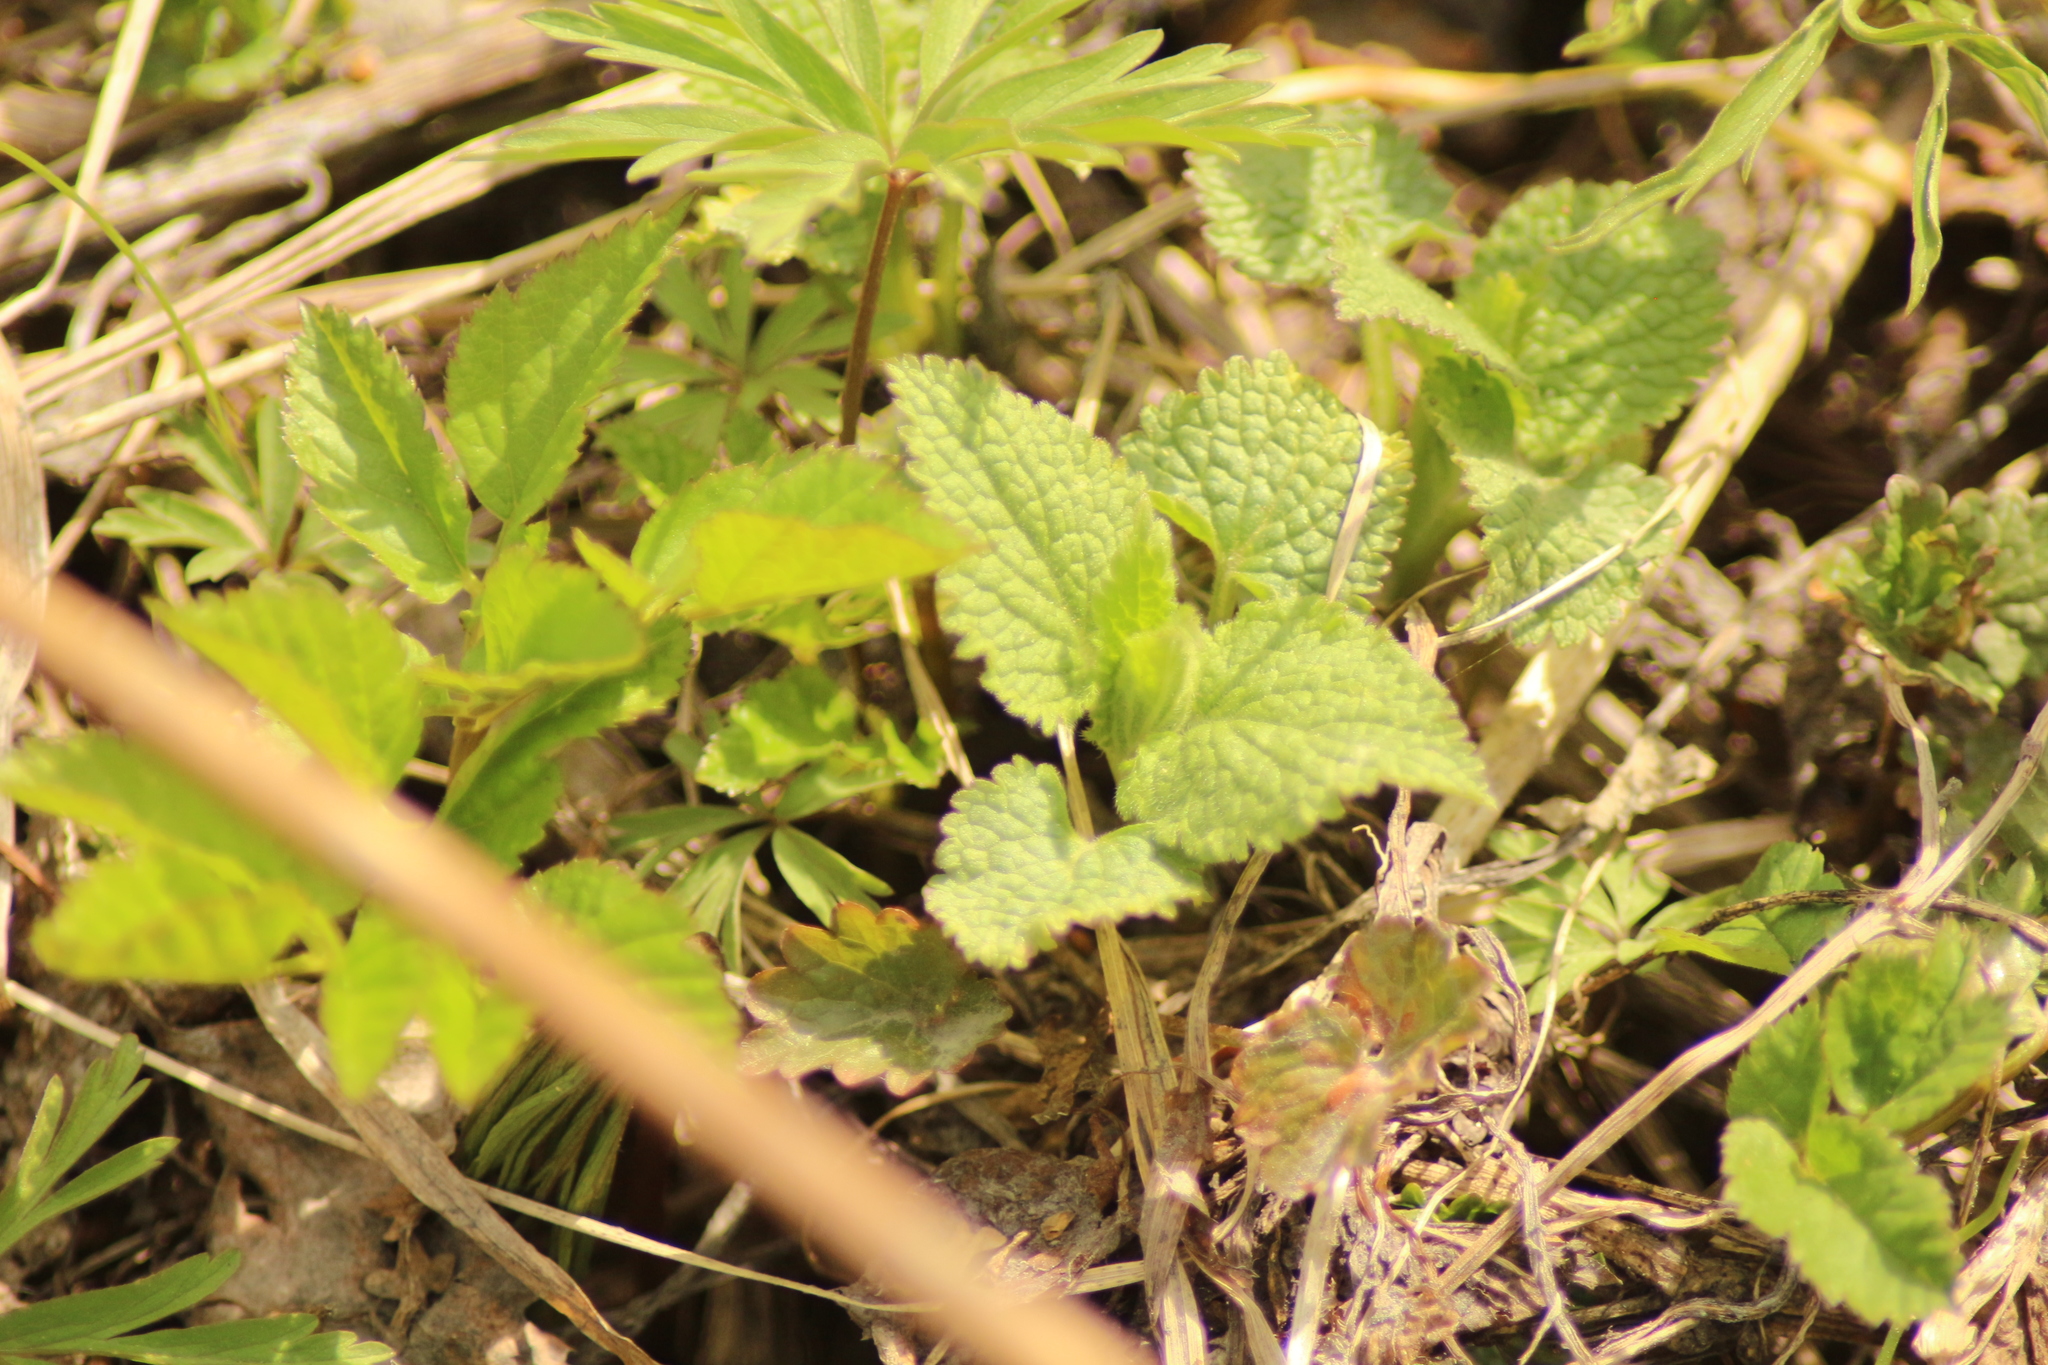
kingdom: Plantae
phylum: Tracheophyta
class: Magnoliopsida
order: Lamiales
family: Lamiaceae
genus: Lamium
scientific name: Lamium album
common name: White dead-nettle
